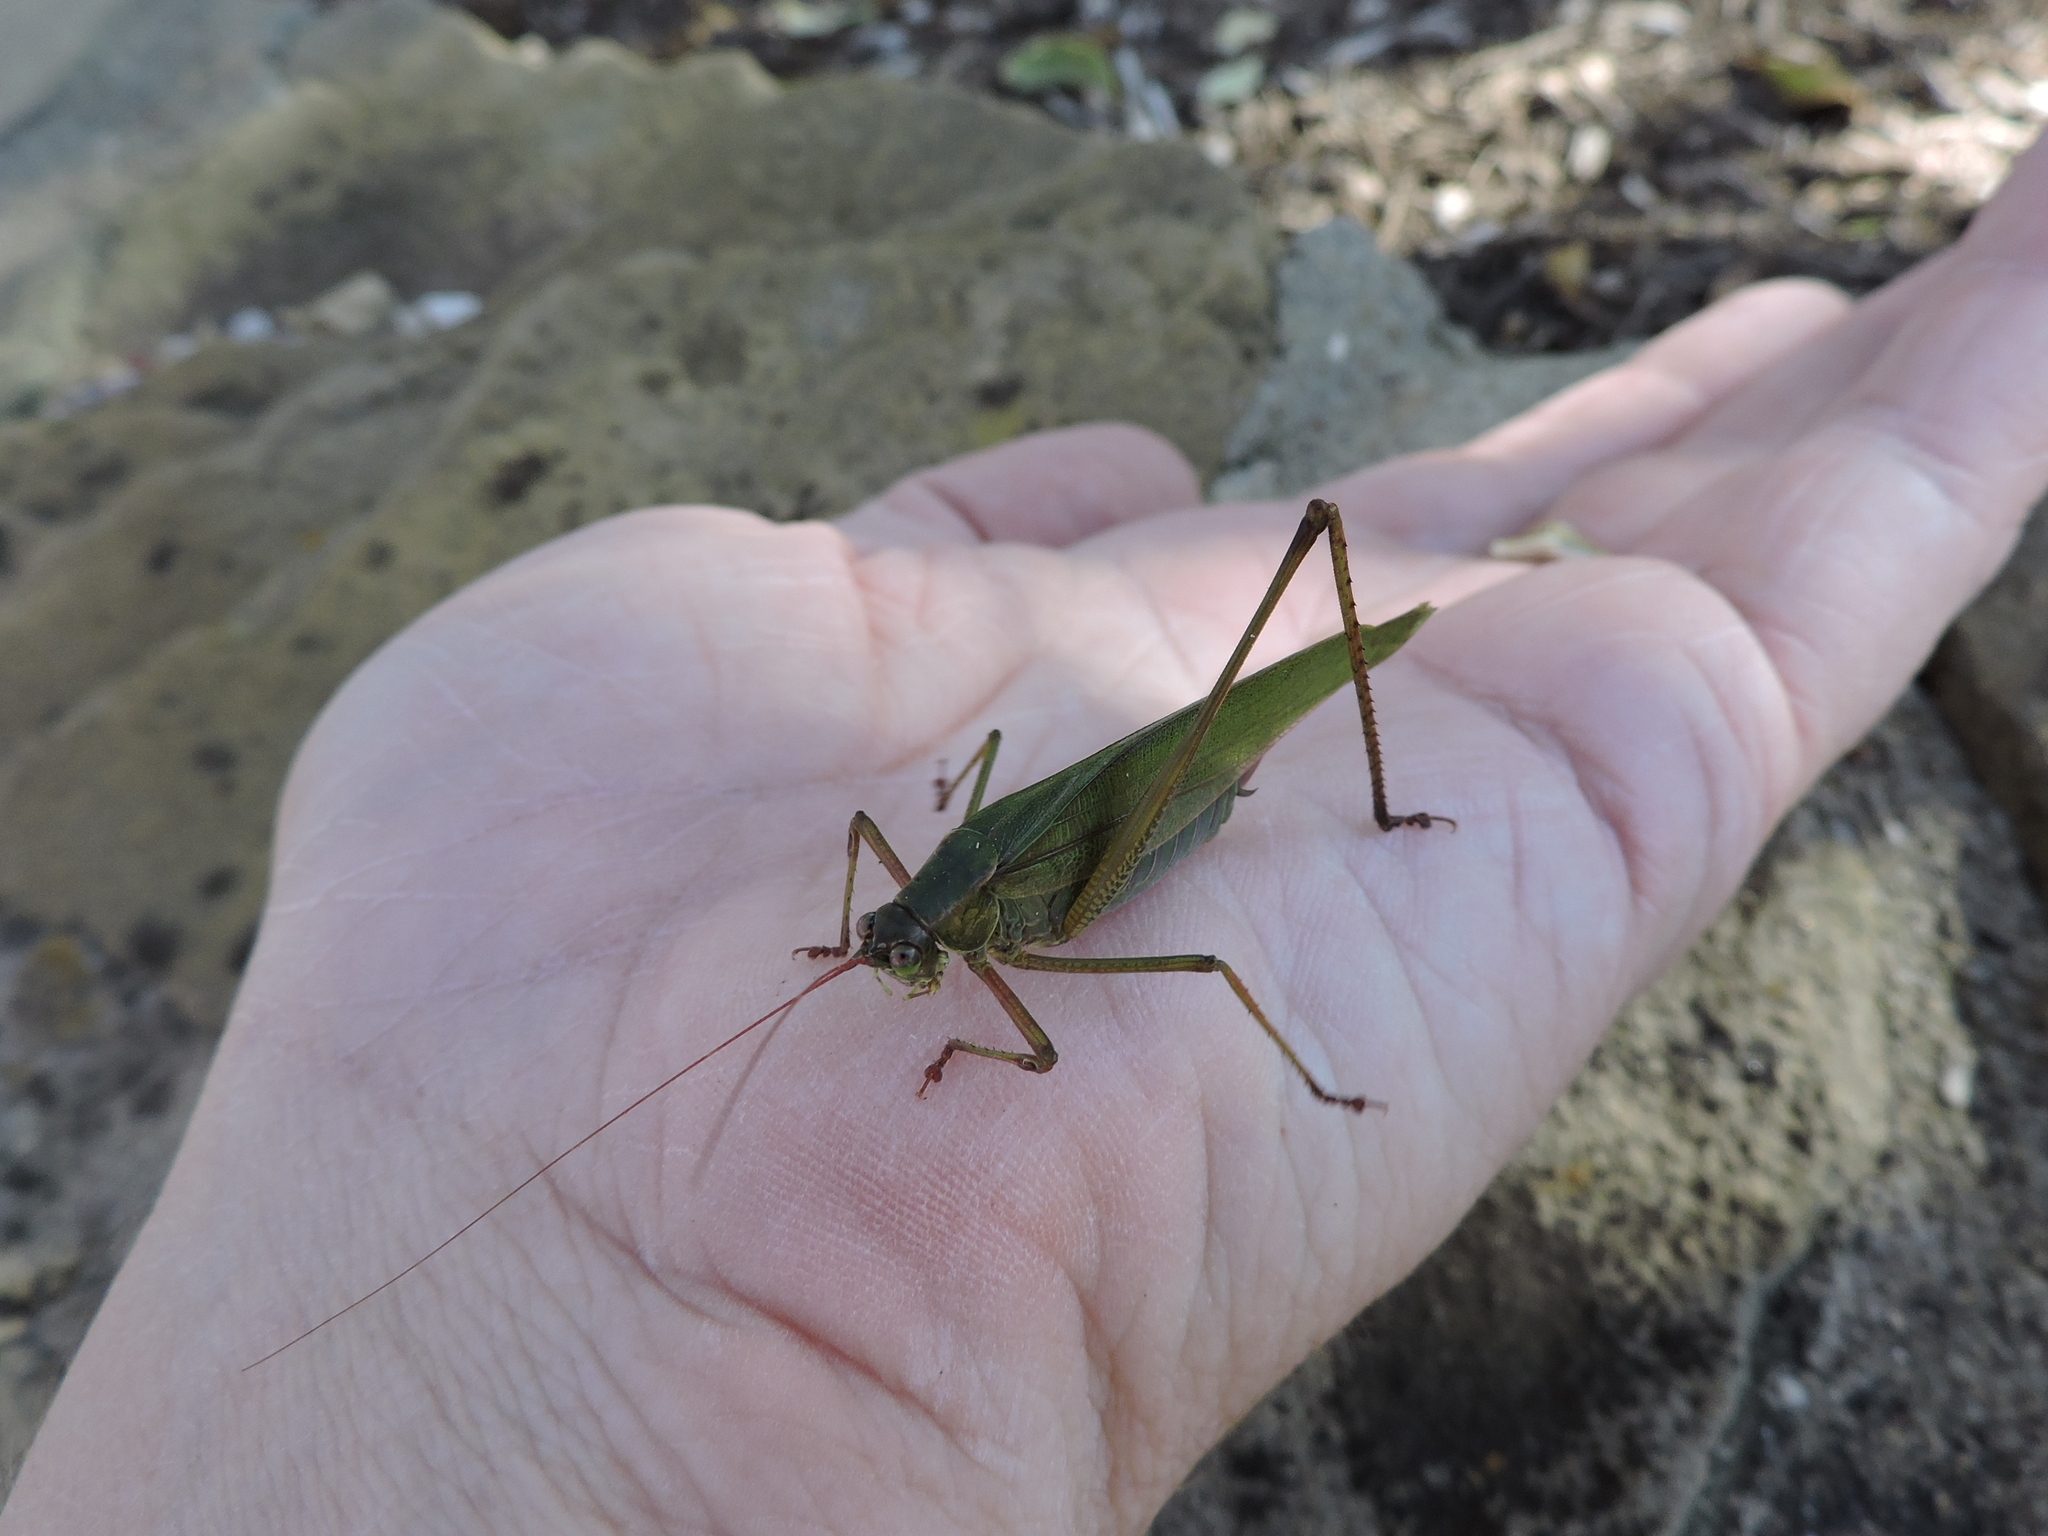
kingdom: Animalia
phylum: Arthropoda
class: Insecta
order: Orthoptera
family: Tettigoniidae
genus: Scudderia
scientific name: Scudderia furcata
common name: Fork-tailed bush katydid
